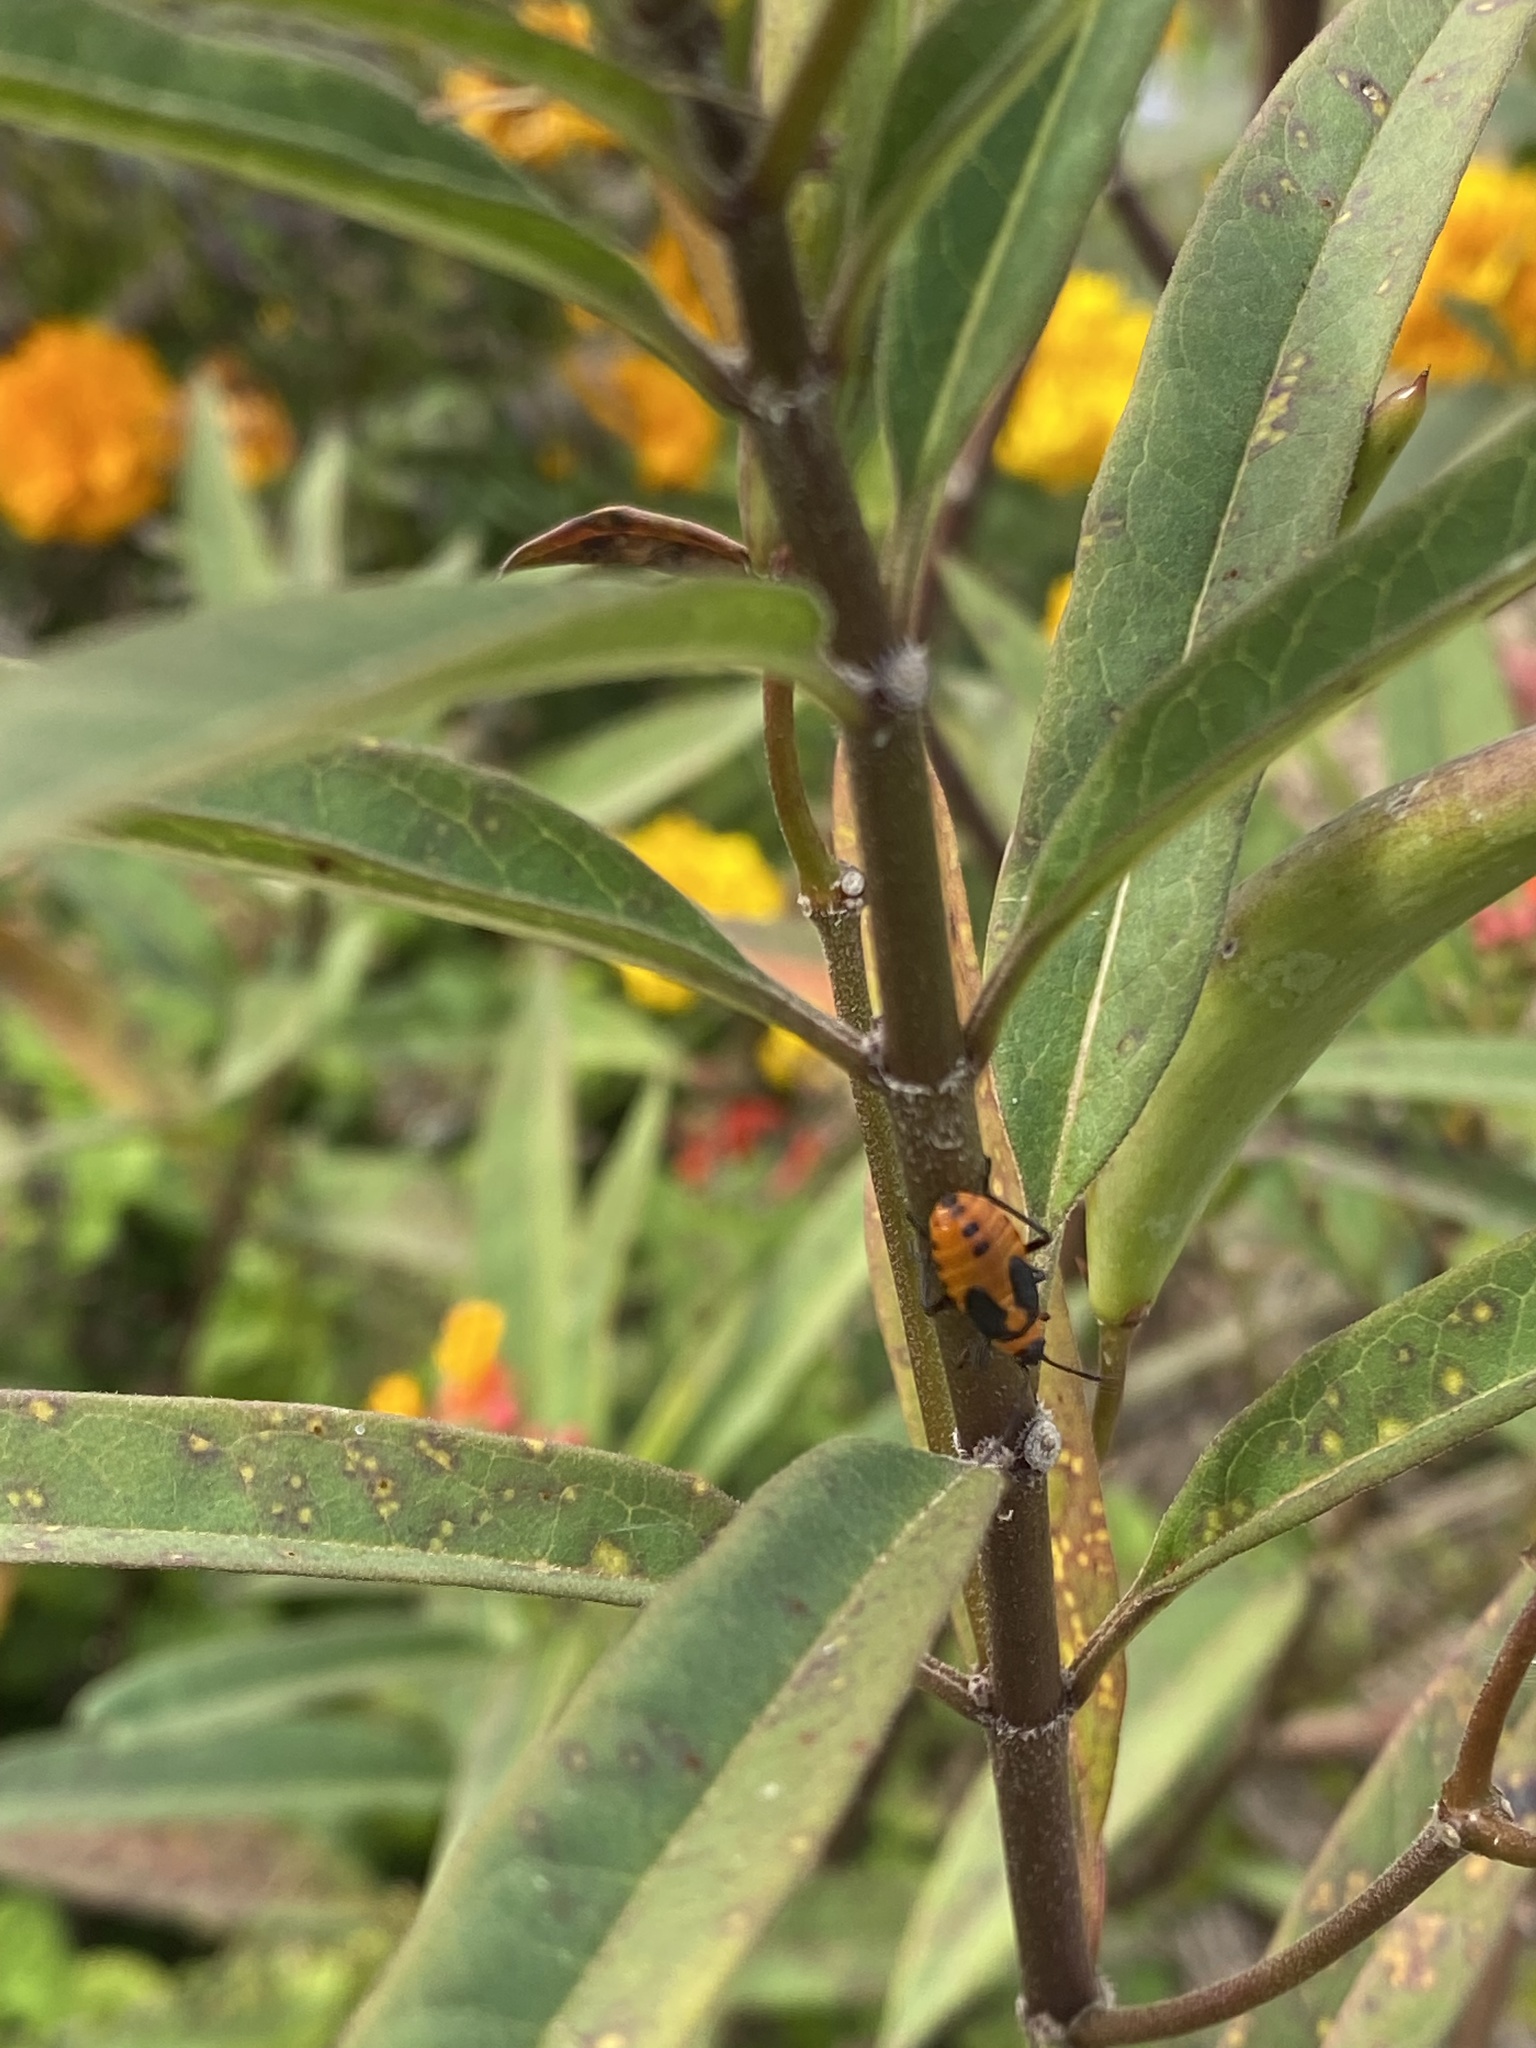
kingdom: Animalia
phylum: Arthropoda
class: Insecta
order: Hemiptera
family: Lygaeidae
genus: Oncopeltus
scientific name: Oncopeltus fasciatus
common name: Large milkweed bug
